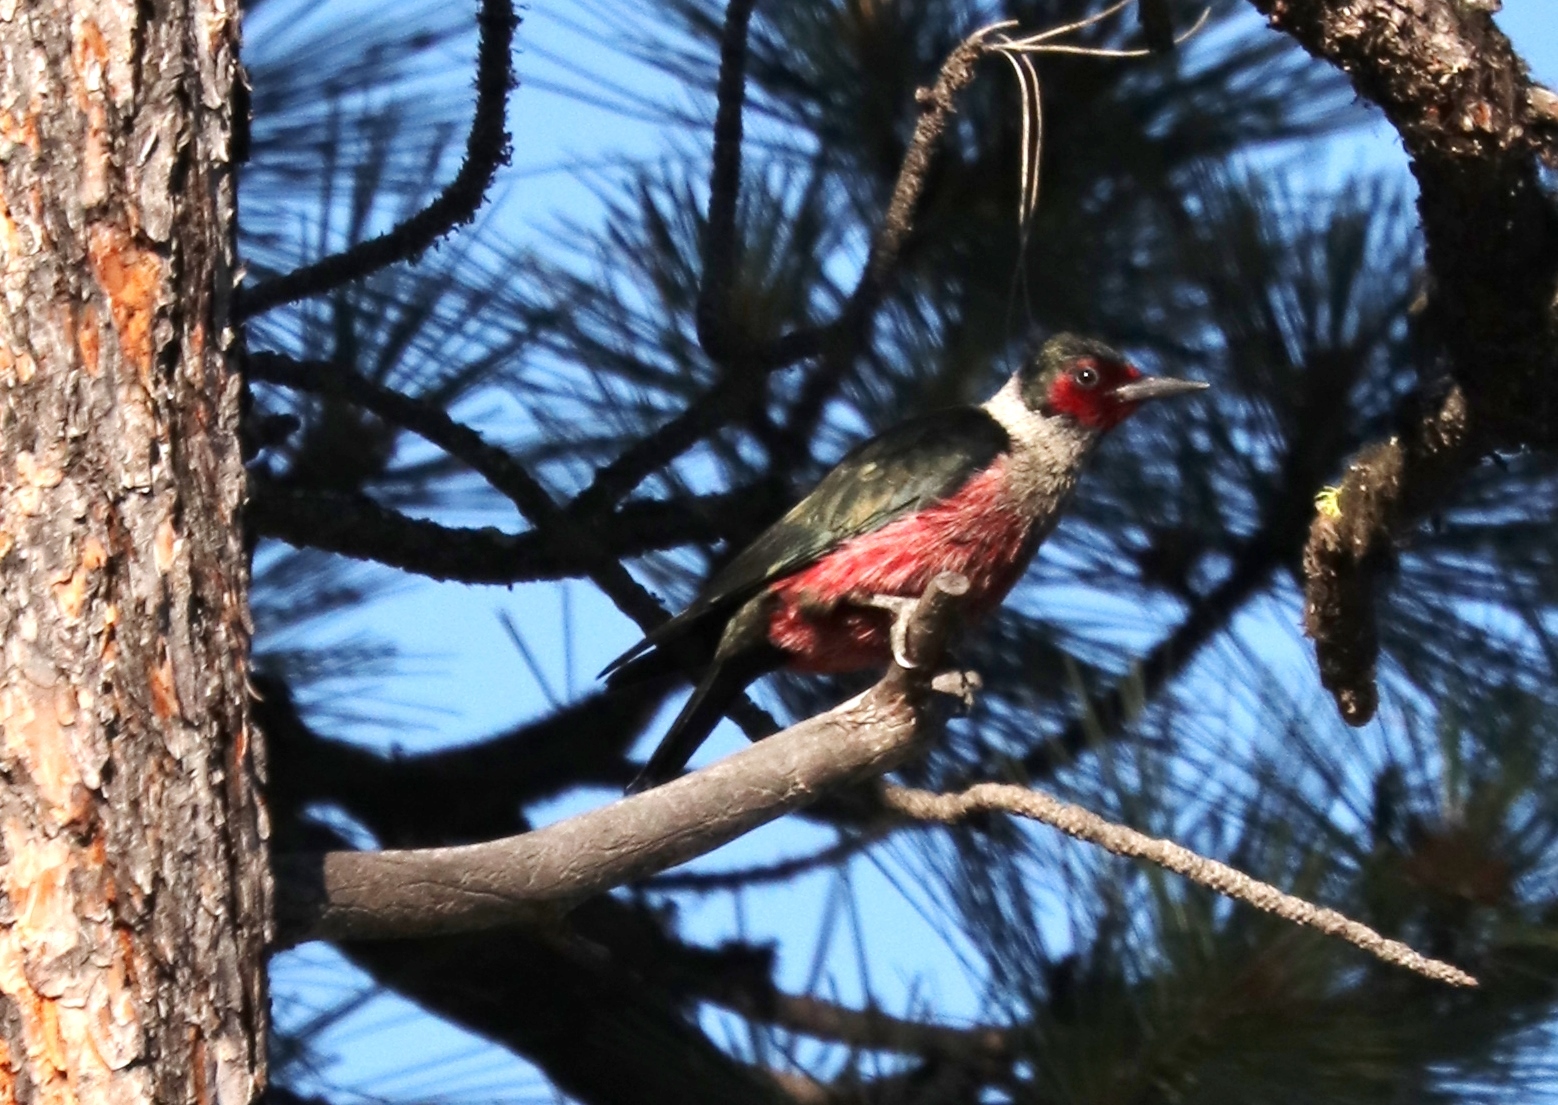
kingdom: Animalia
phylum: Chordata
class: Aves
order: Piciformes
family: Picidae
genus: Melanerpes
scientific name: Melanerpes lewis
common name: Lewis's woodpecker
